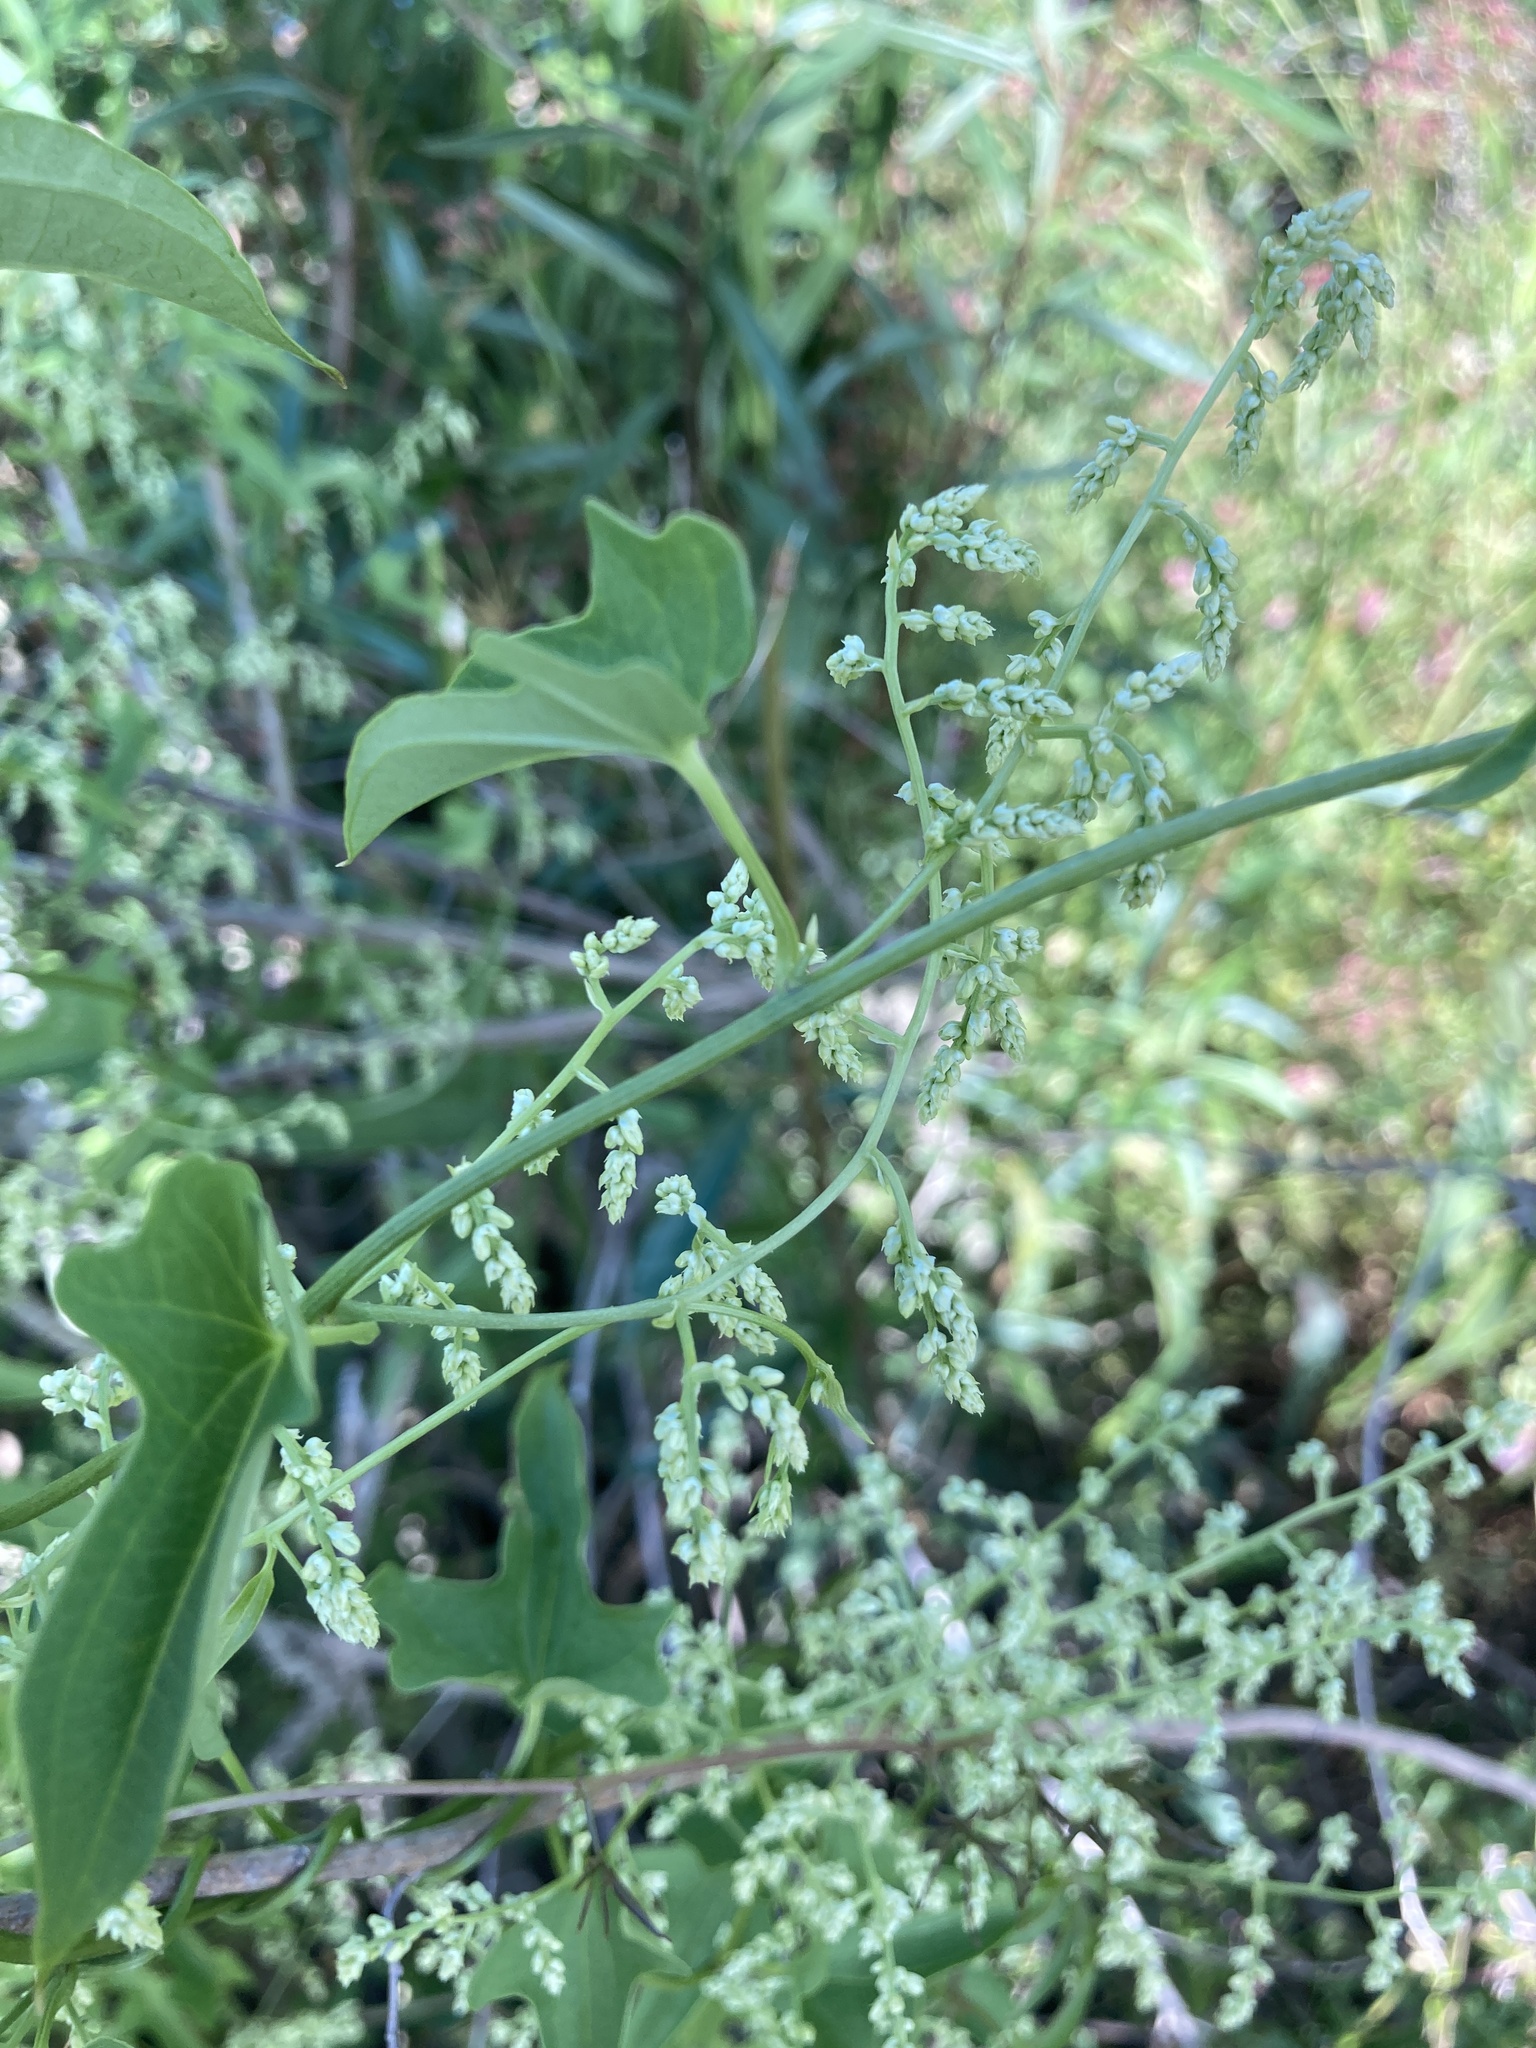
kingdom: Plantae
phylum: Tracheophyta
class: Liliopsida
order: Dioscoreales
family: Dioscoreaceae
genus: Dioscorea
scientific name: Dioscorea sinuata
